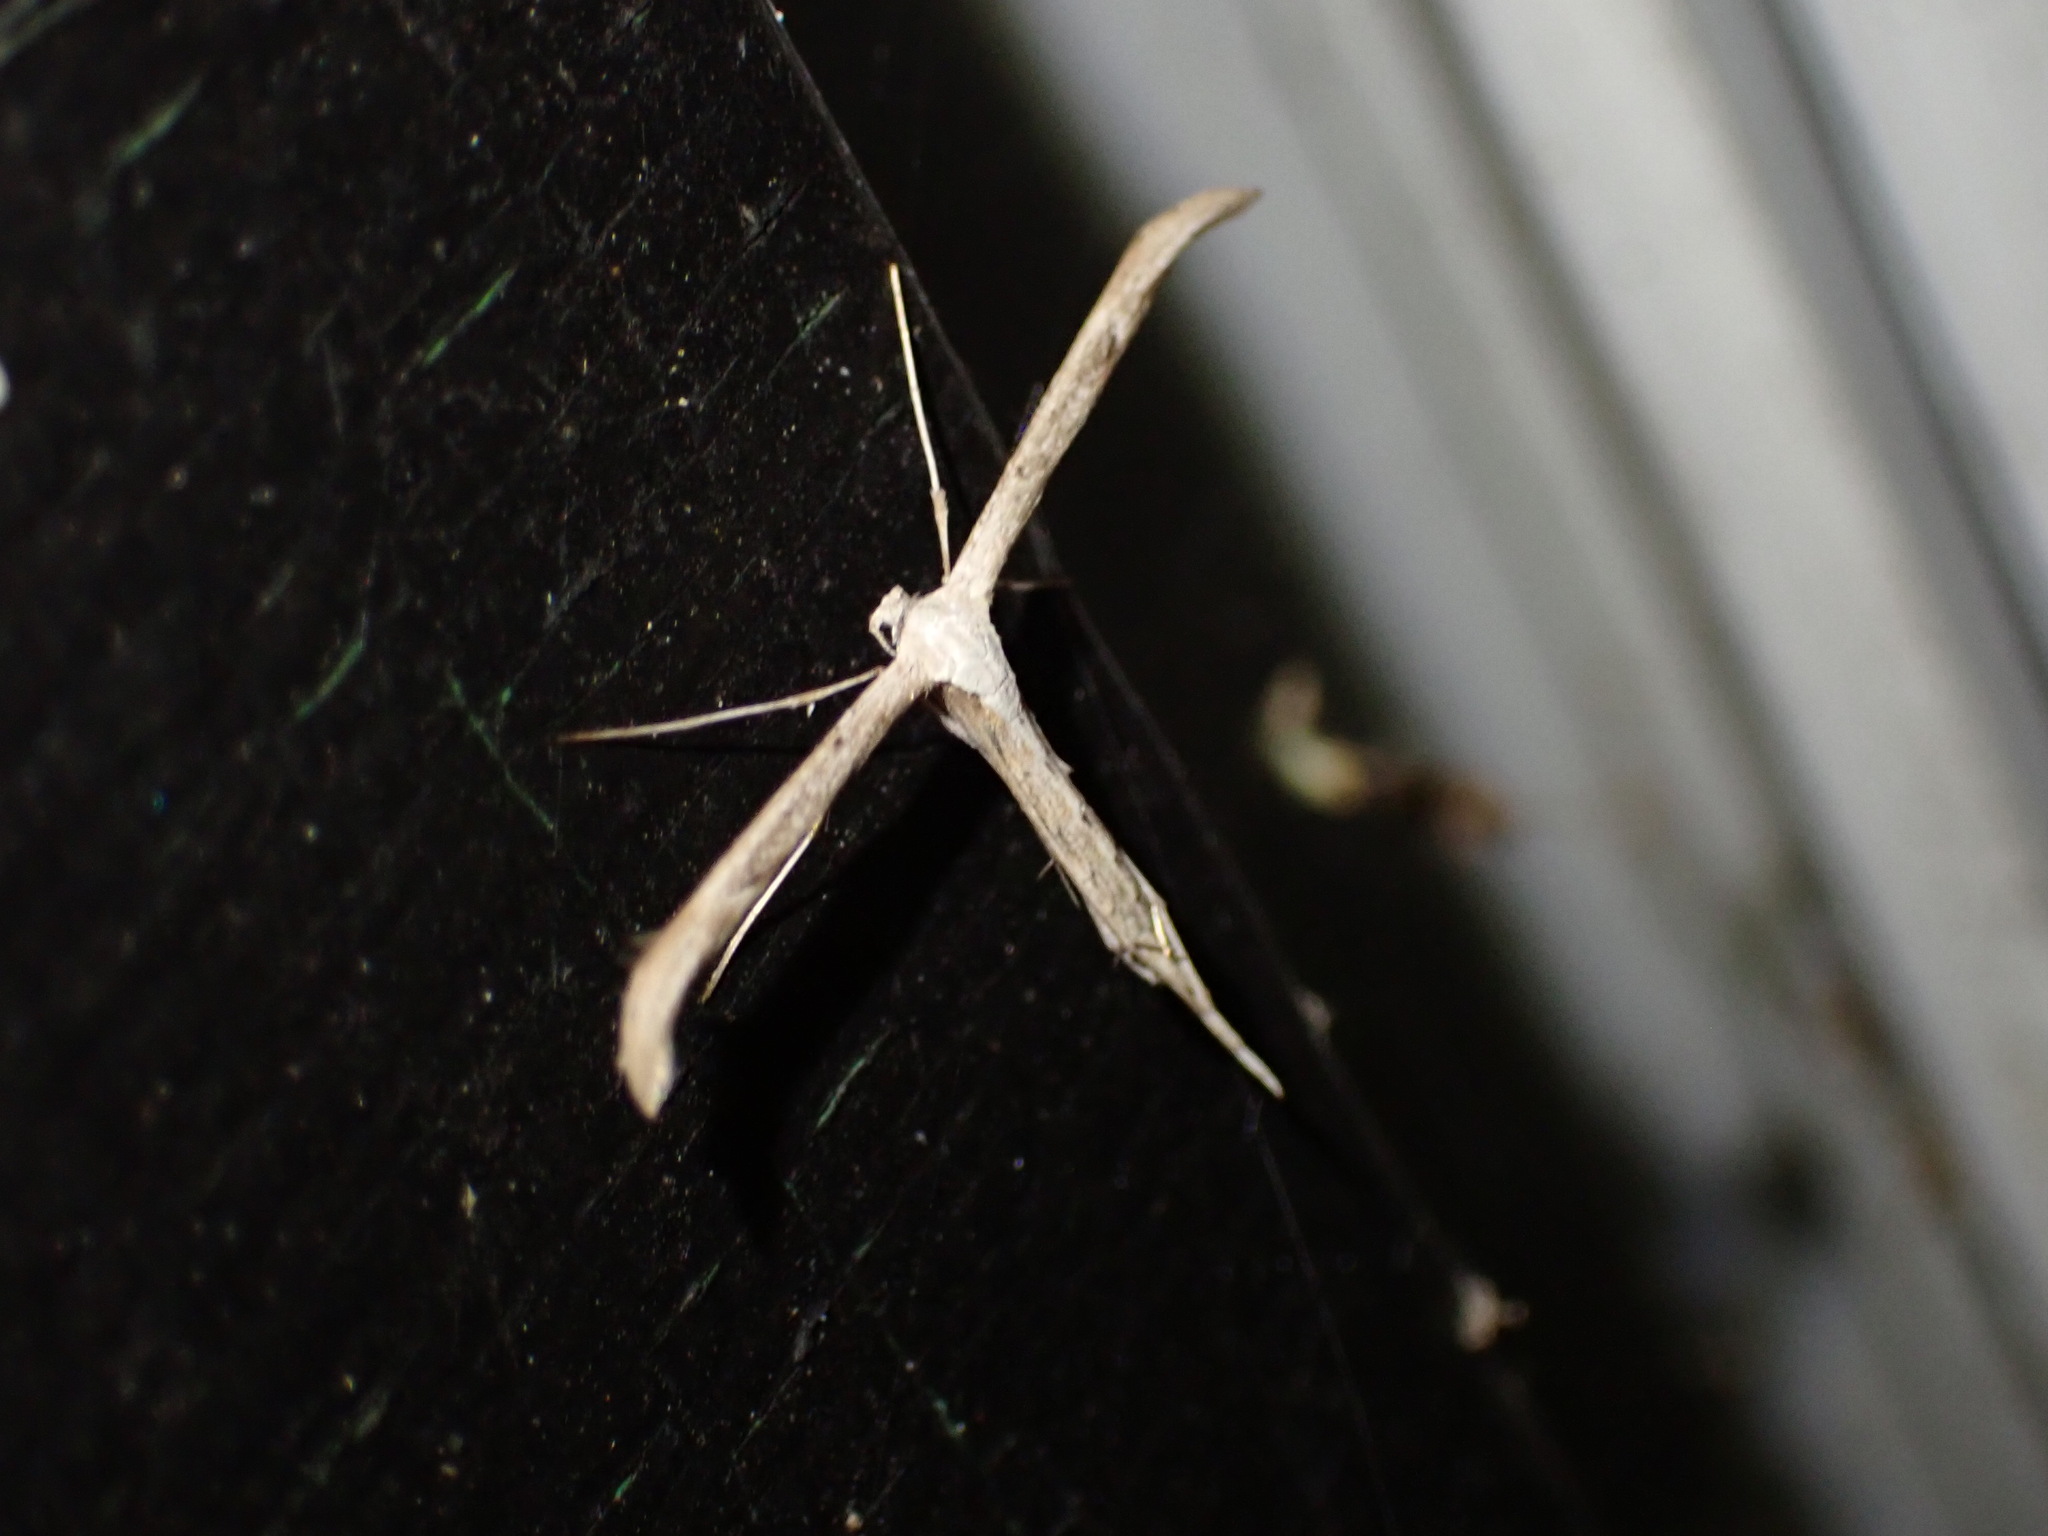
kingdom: Animalia
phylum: Arthropoda
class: Insecta
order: Lepidoptera
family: Pterophoridae
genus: Emmelina
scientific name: Emmelina monodactyla
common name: Common plume
